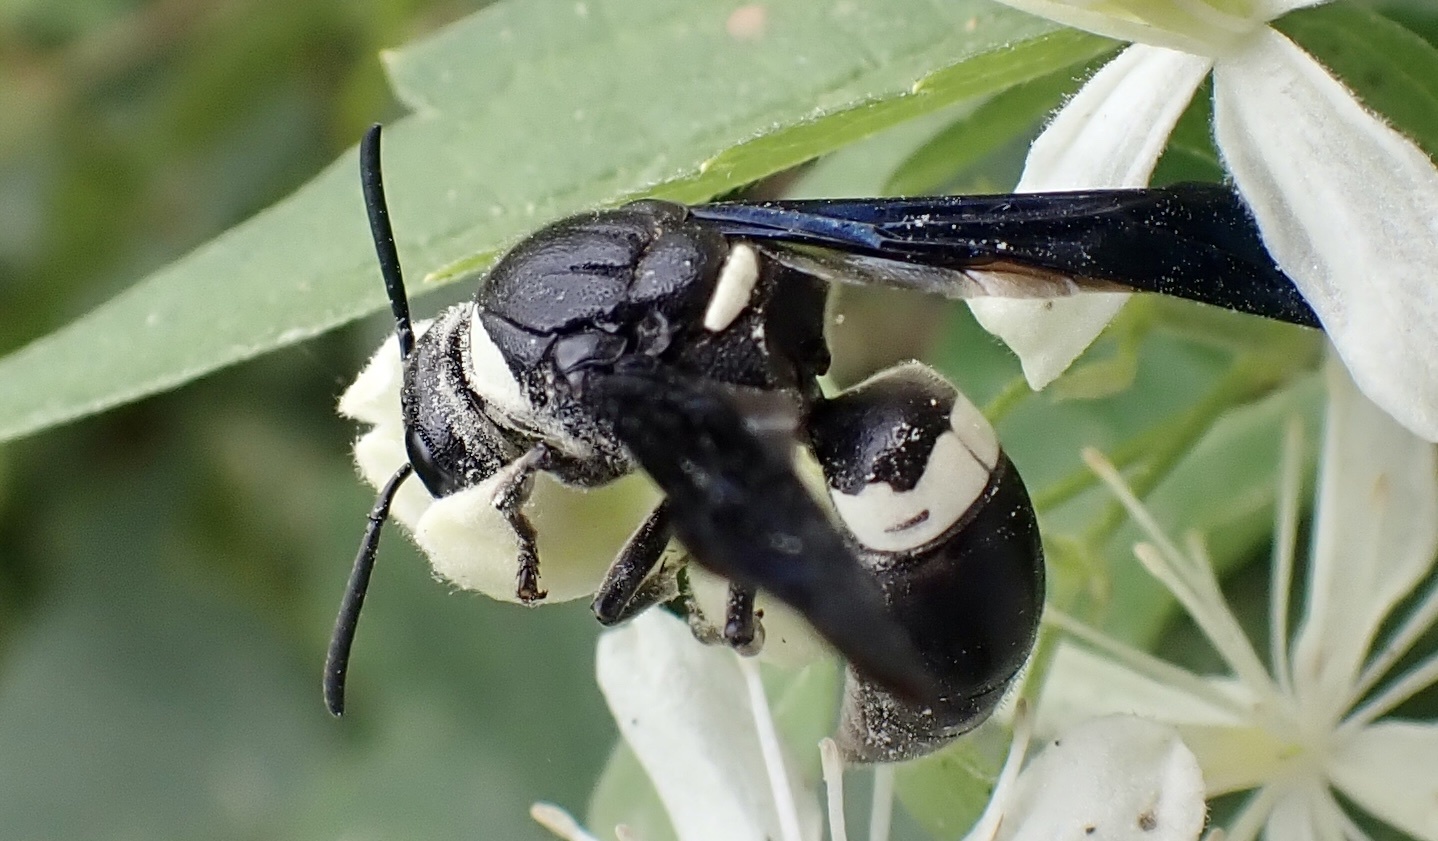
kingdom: Animalia
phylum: Arthropoda
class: Insecta
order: Hymenoptera
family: Eumenidae
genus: Monobia
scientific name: Monobia quadridens
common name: Four-toothed mason wasp
